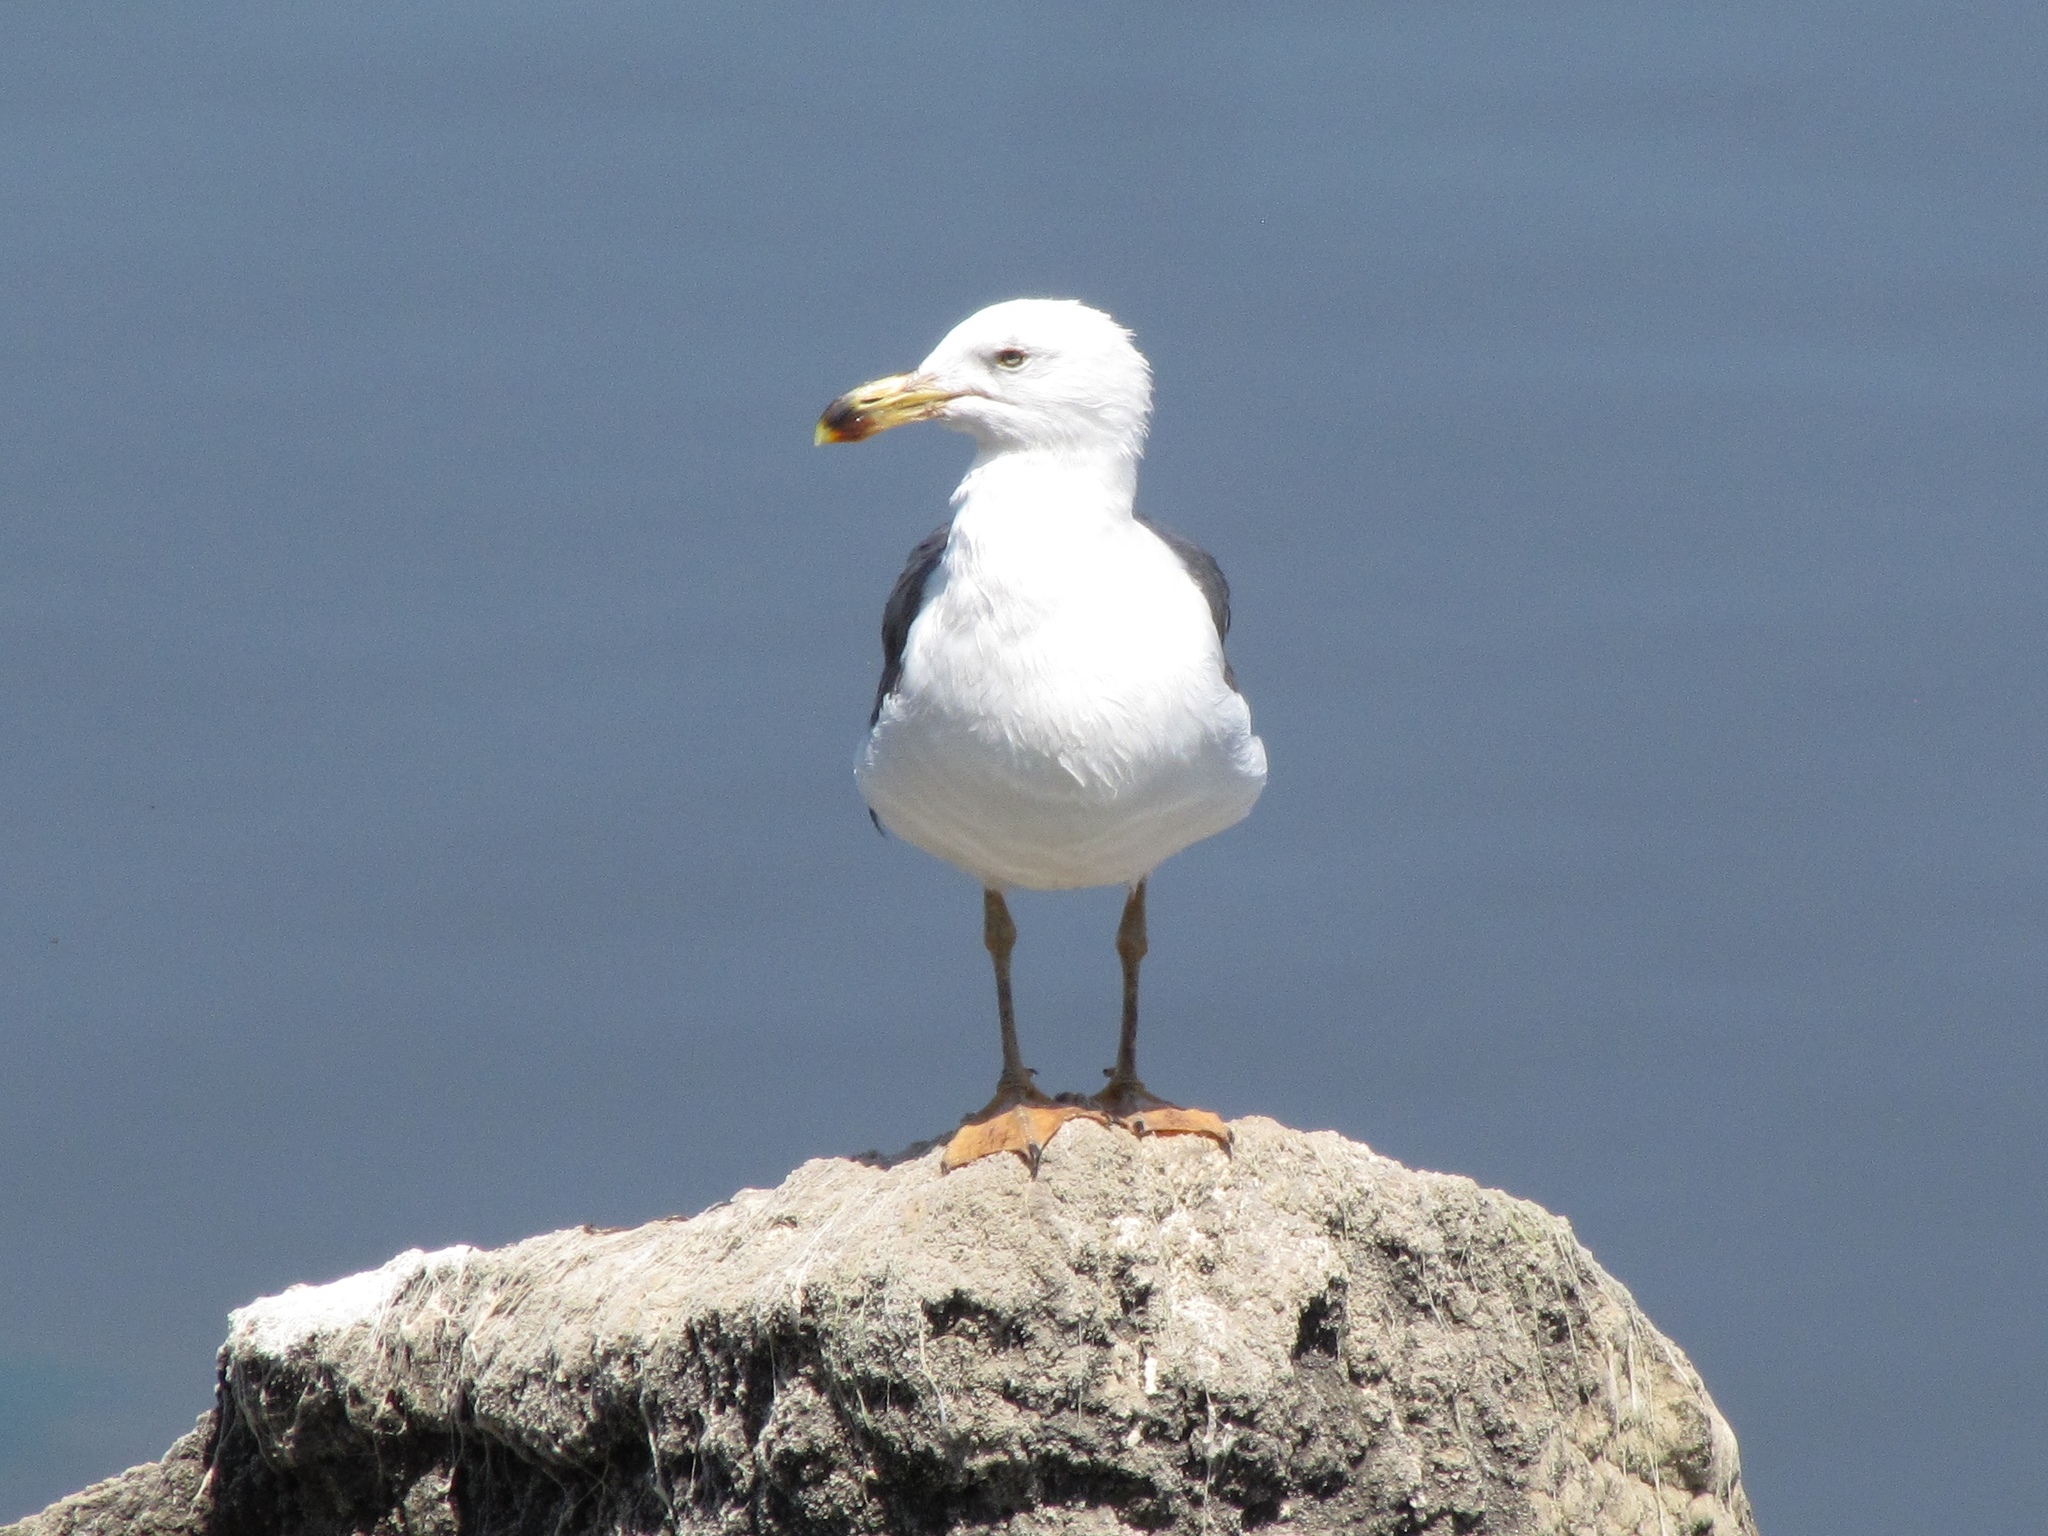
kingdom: Animalia
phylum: Chordata
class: Aves
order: Charadriiformes
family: Laridae
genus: Larus
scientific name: Larus livens
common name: Yellow-footed gull
